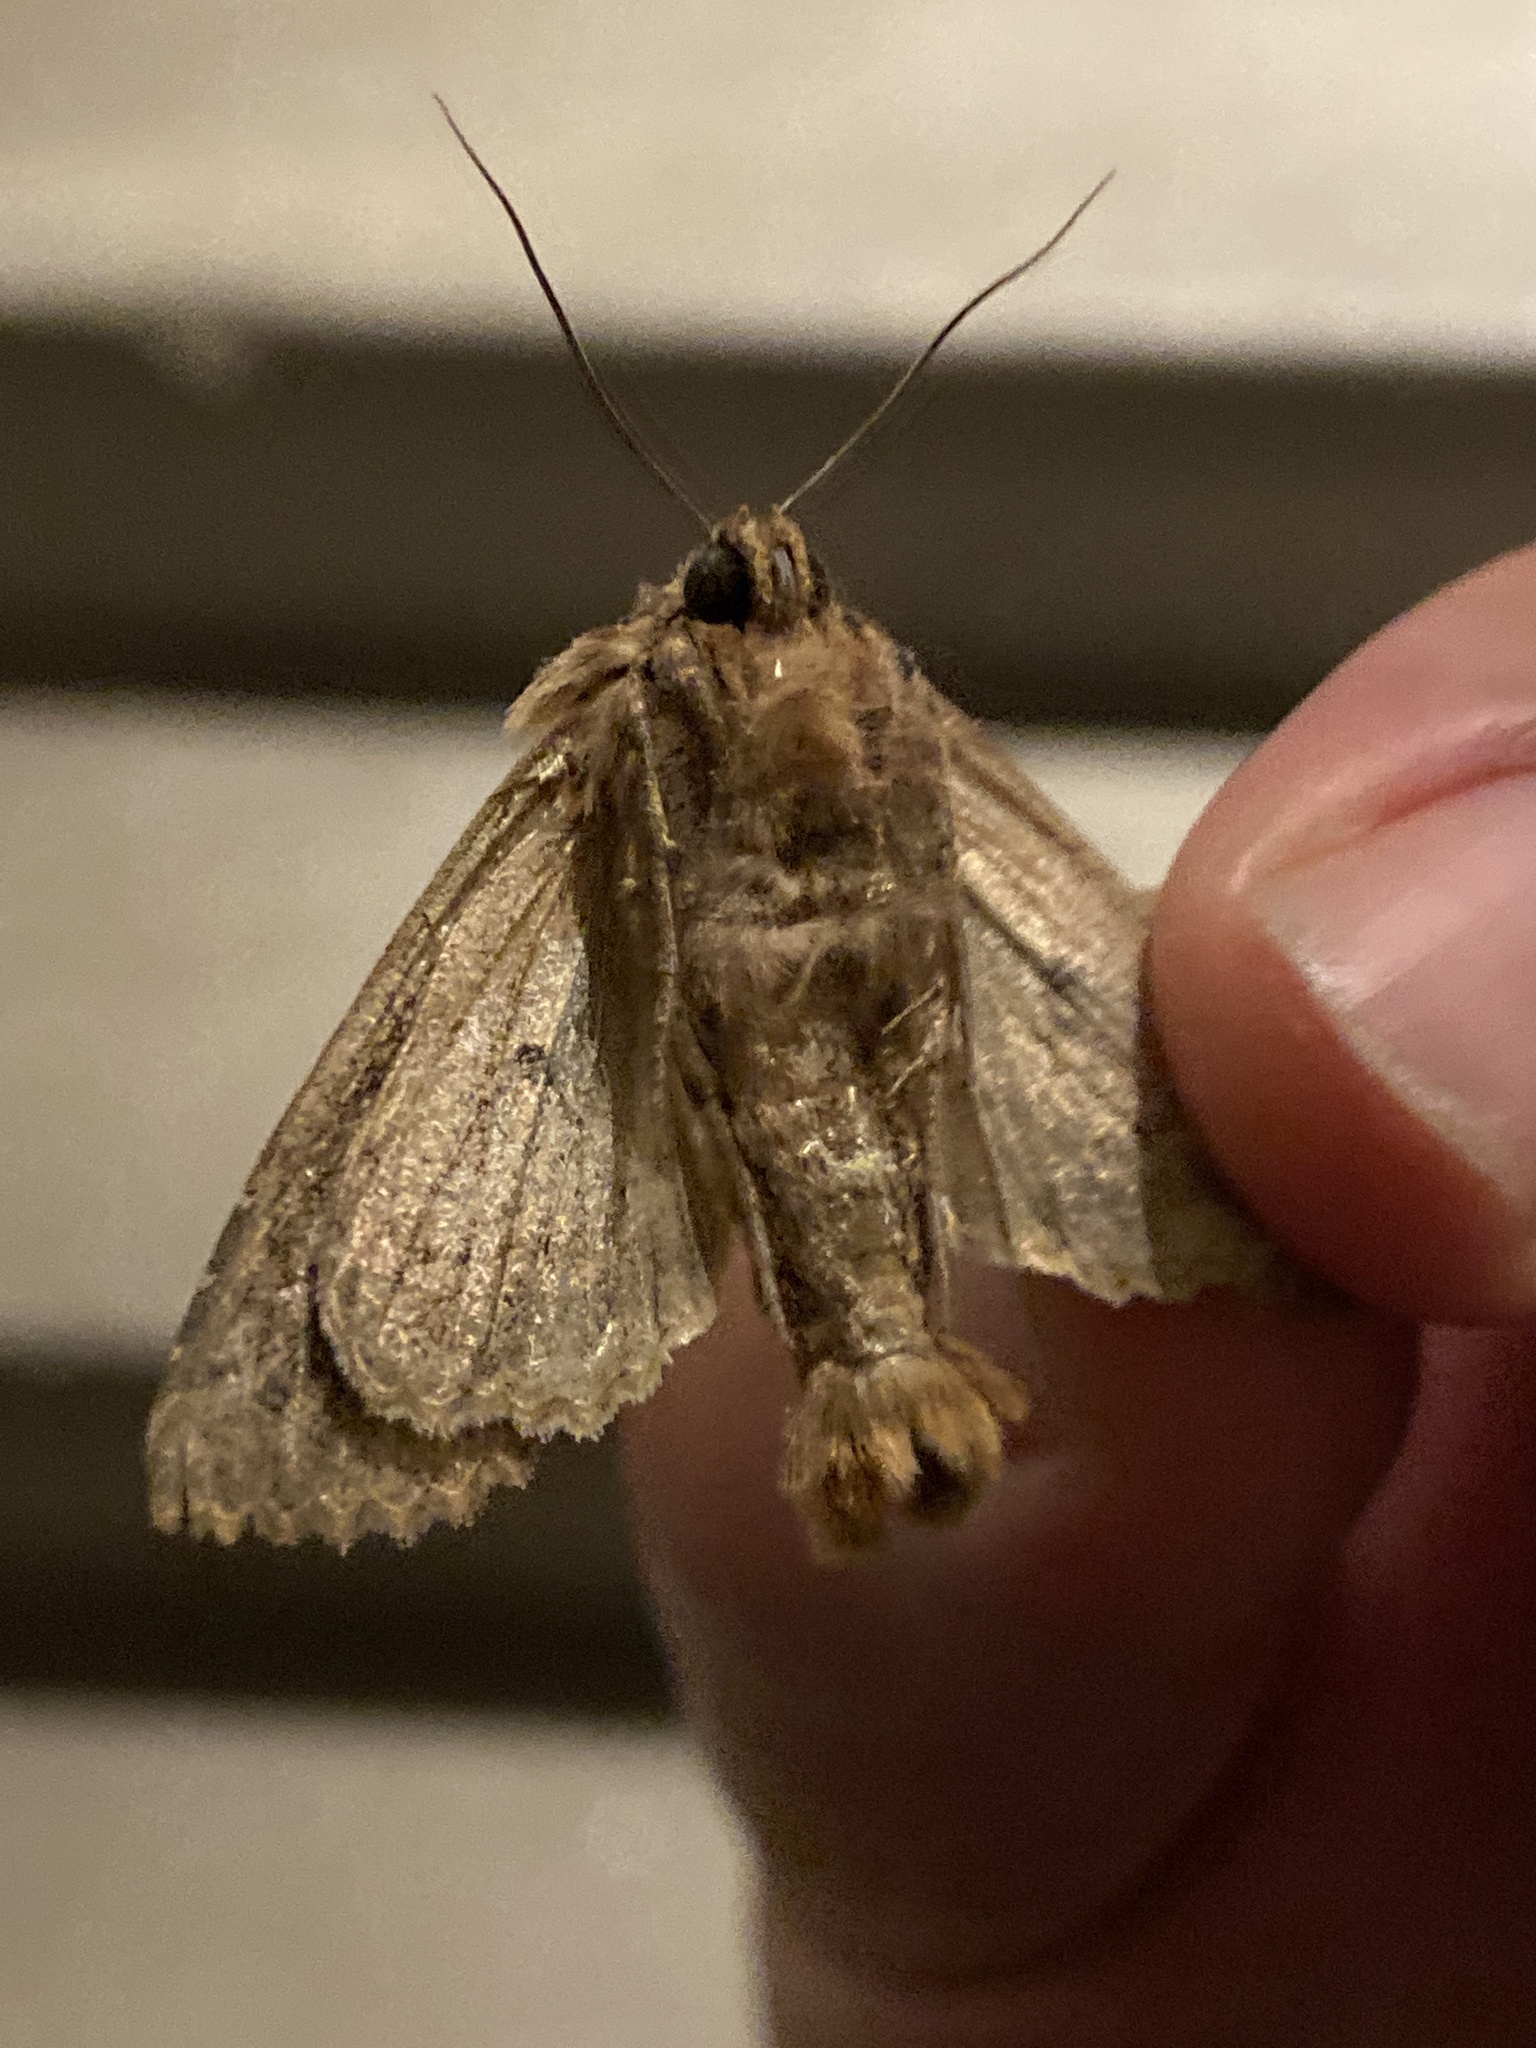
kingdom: Animalia
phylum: Arthropoda
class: Insecta
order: Lepidoptera
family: Noctuidae
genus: Apamea
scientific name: Apamea monoglypha
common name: Dark arches
